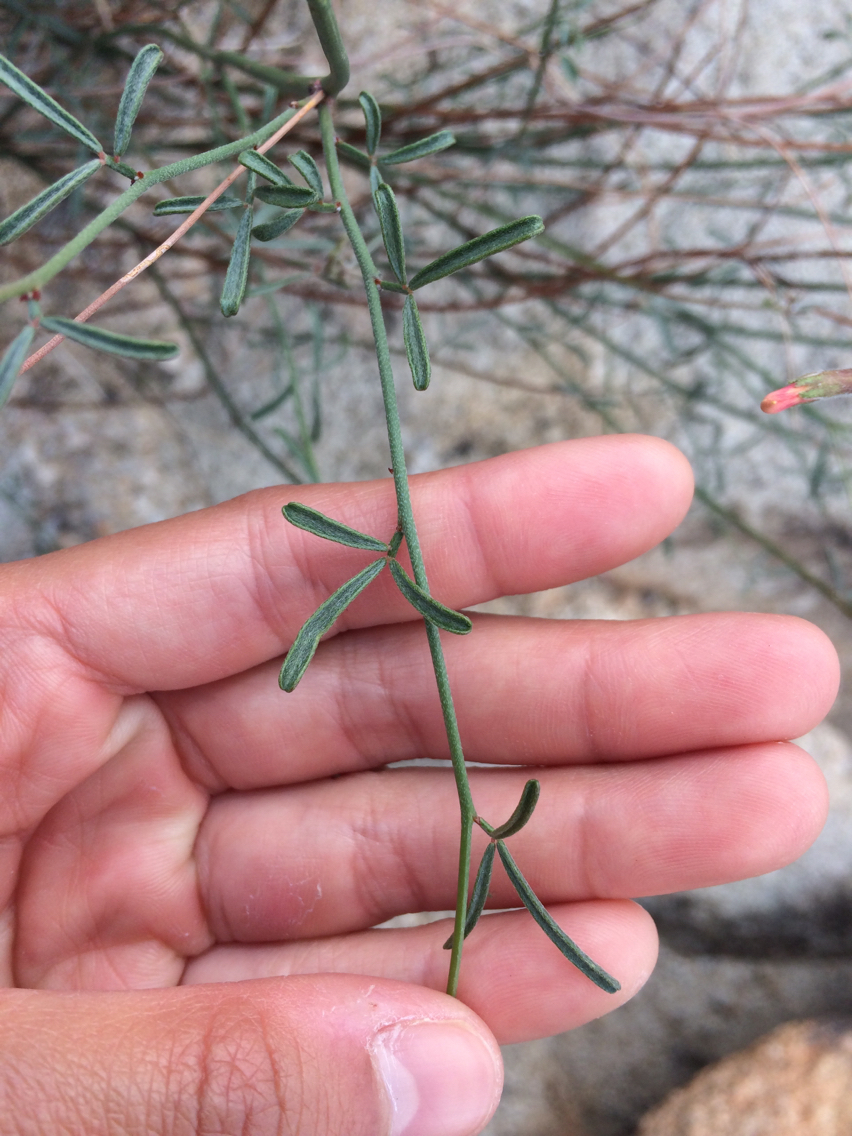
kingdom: Plantae
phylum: Tracheophyta
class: Magnoliopsida
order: Fabales
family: Fabaceae
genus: Acmispon
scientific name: Acmispon rigidus
